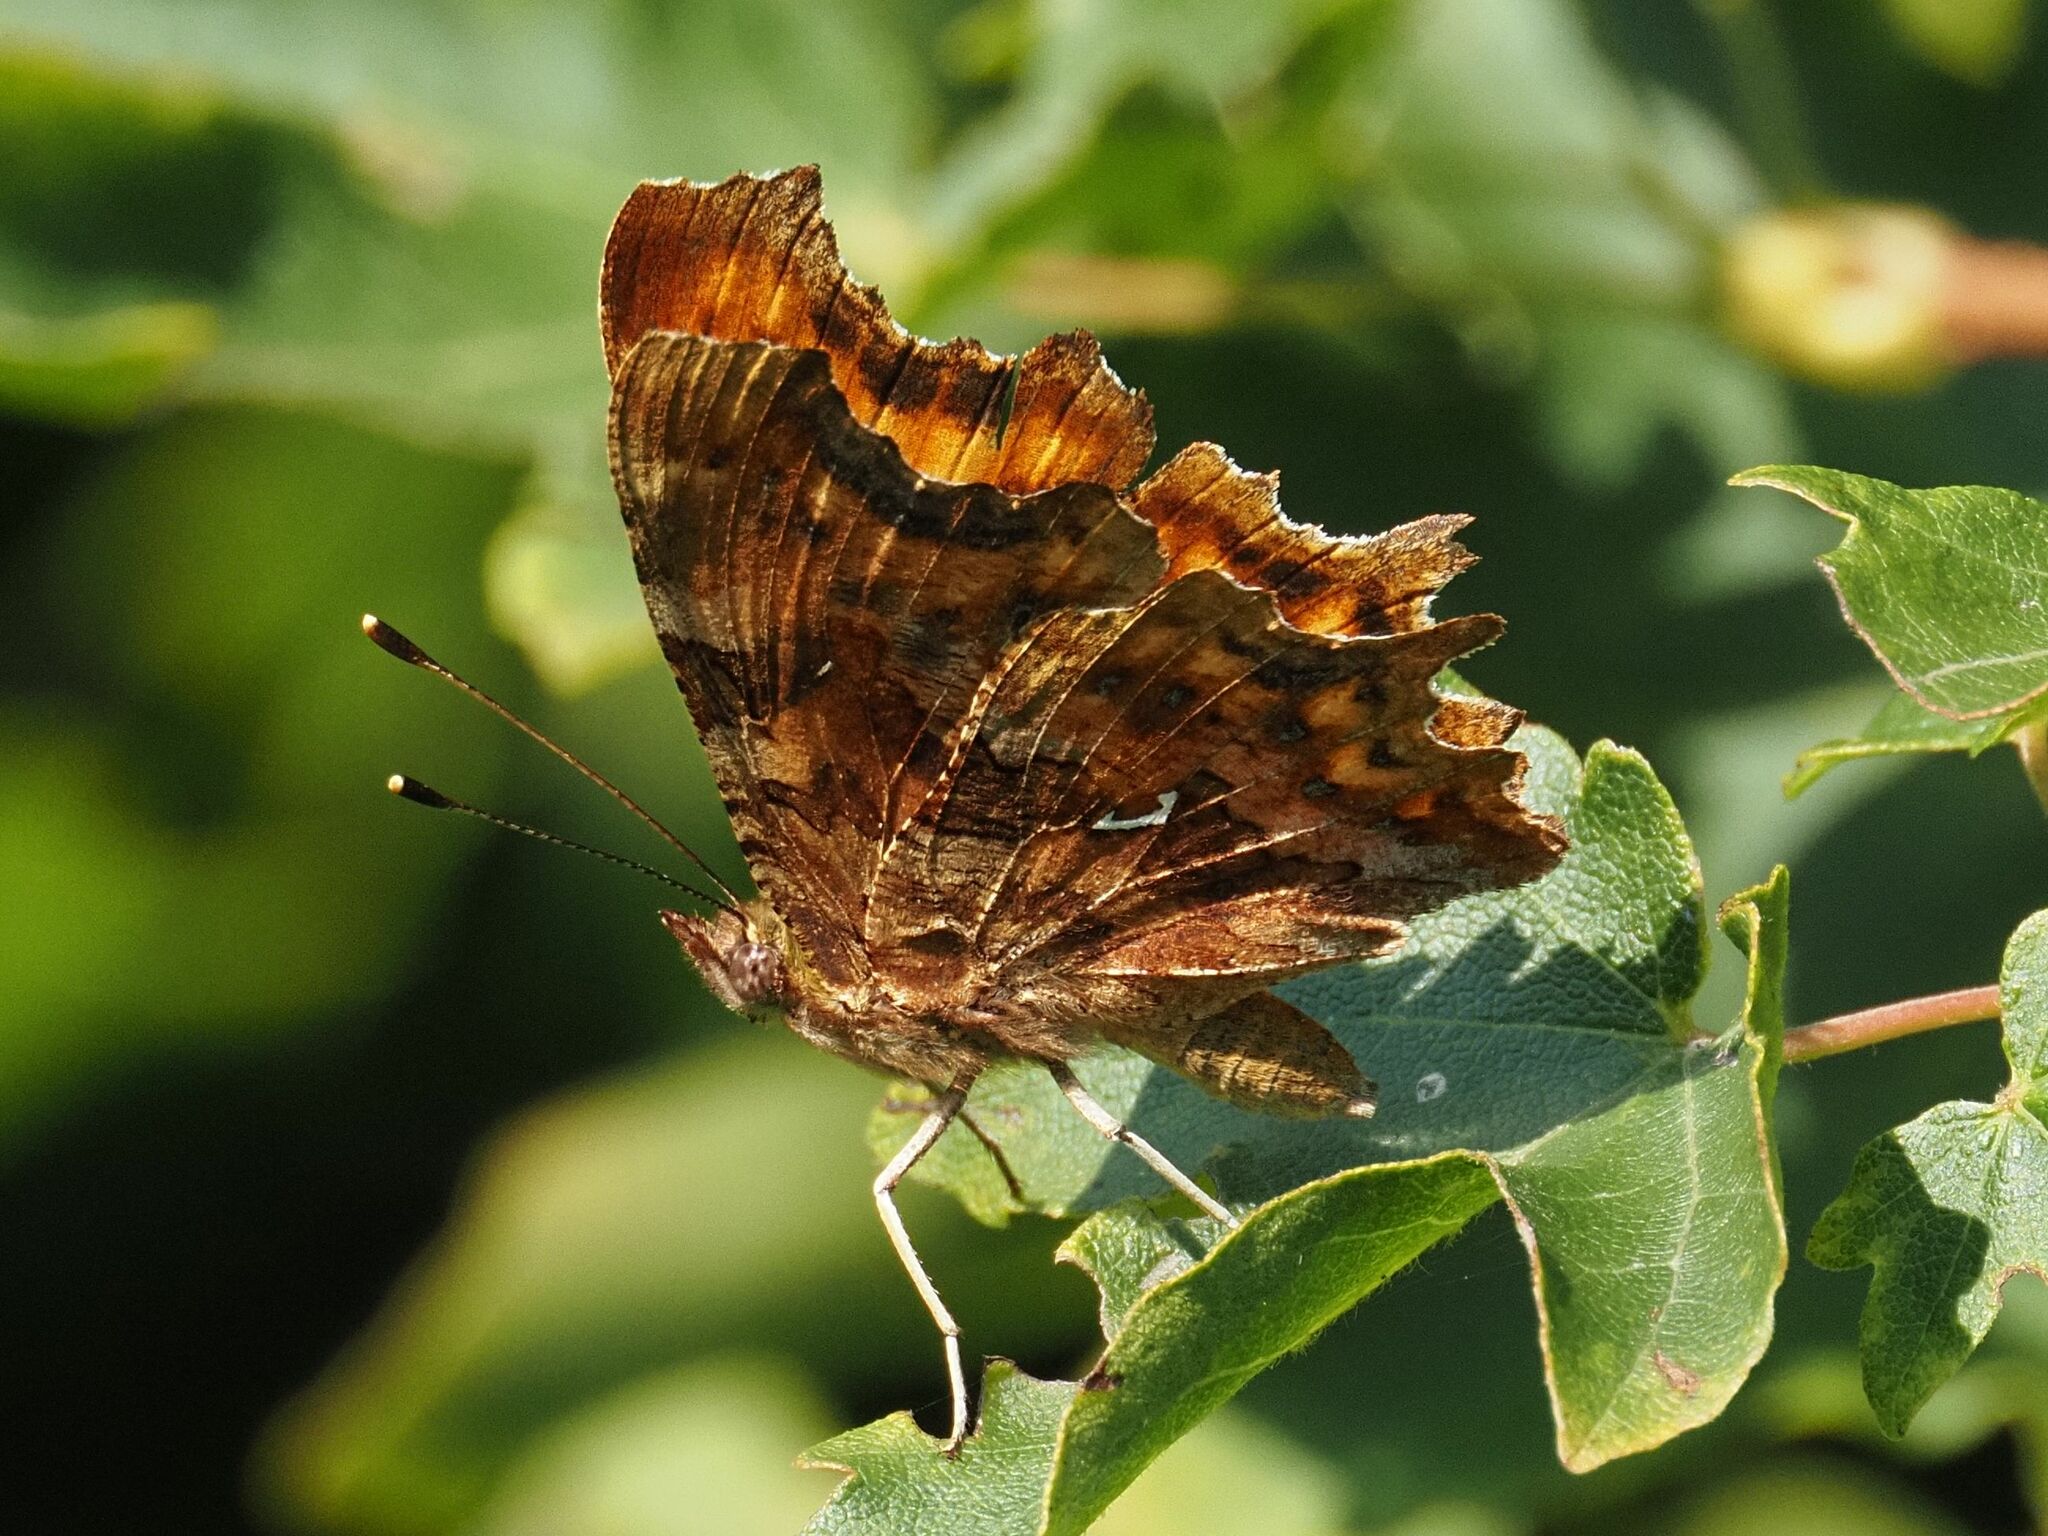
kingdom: Animalia
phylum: Arthropoda
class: Insecta
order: Lepidoptera
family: Nymphalidae
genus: Polygonia
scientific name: Polygonia c-album
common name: Comma
